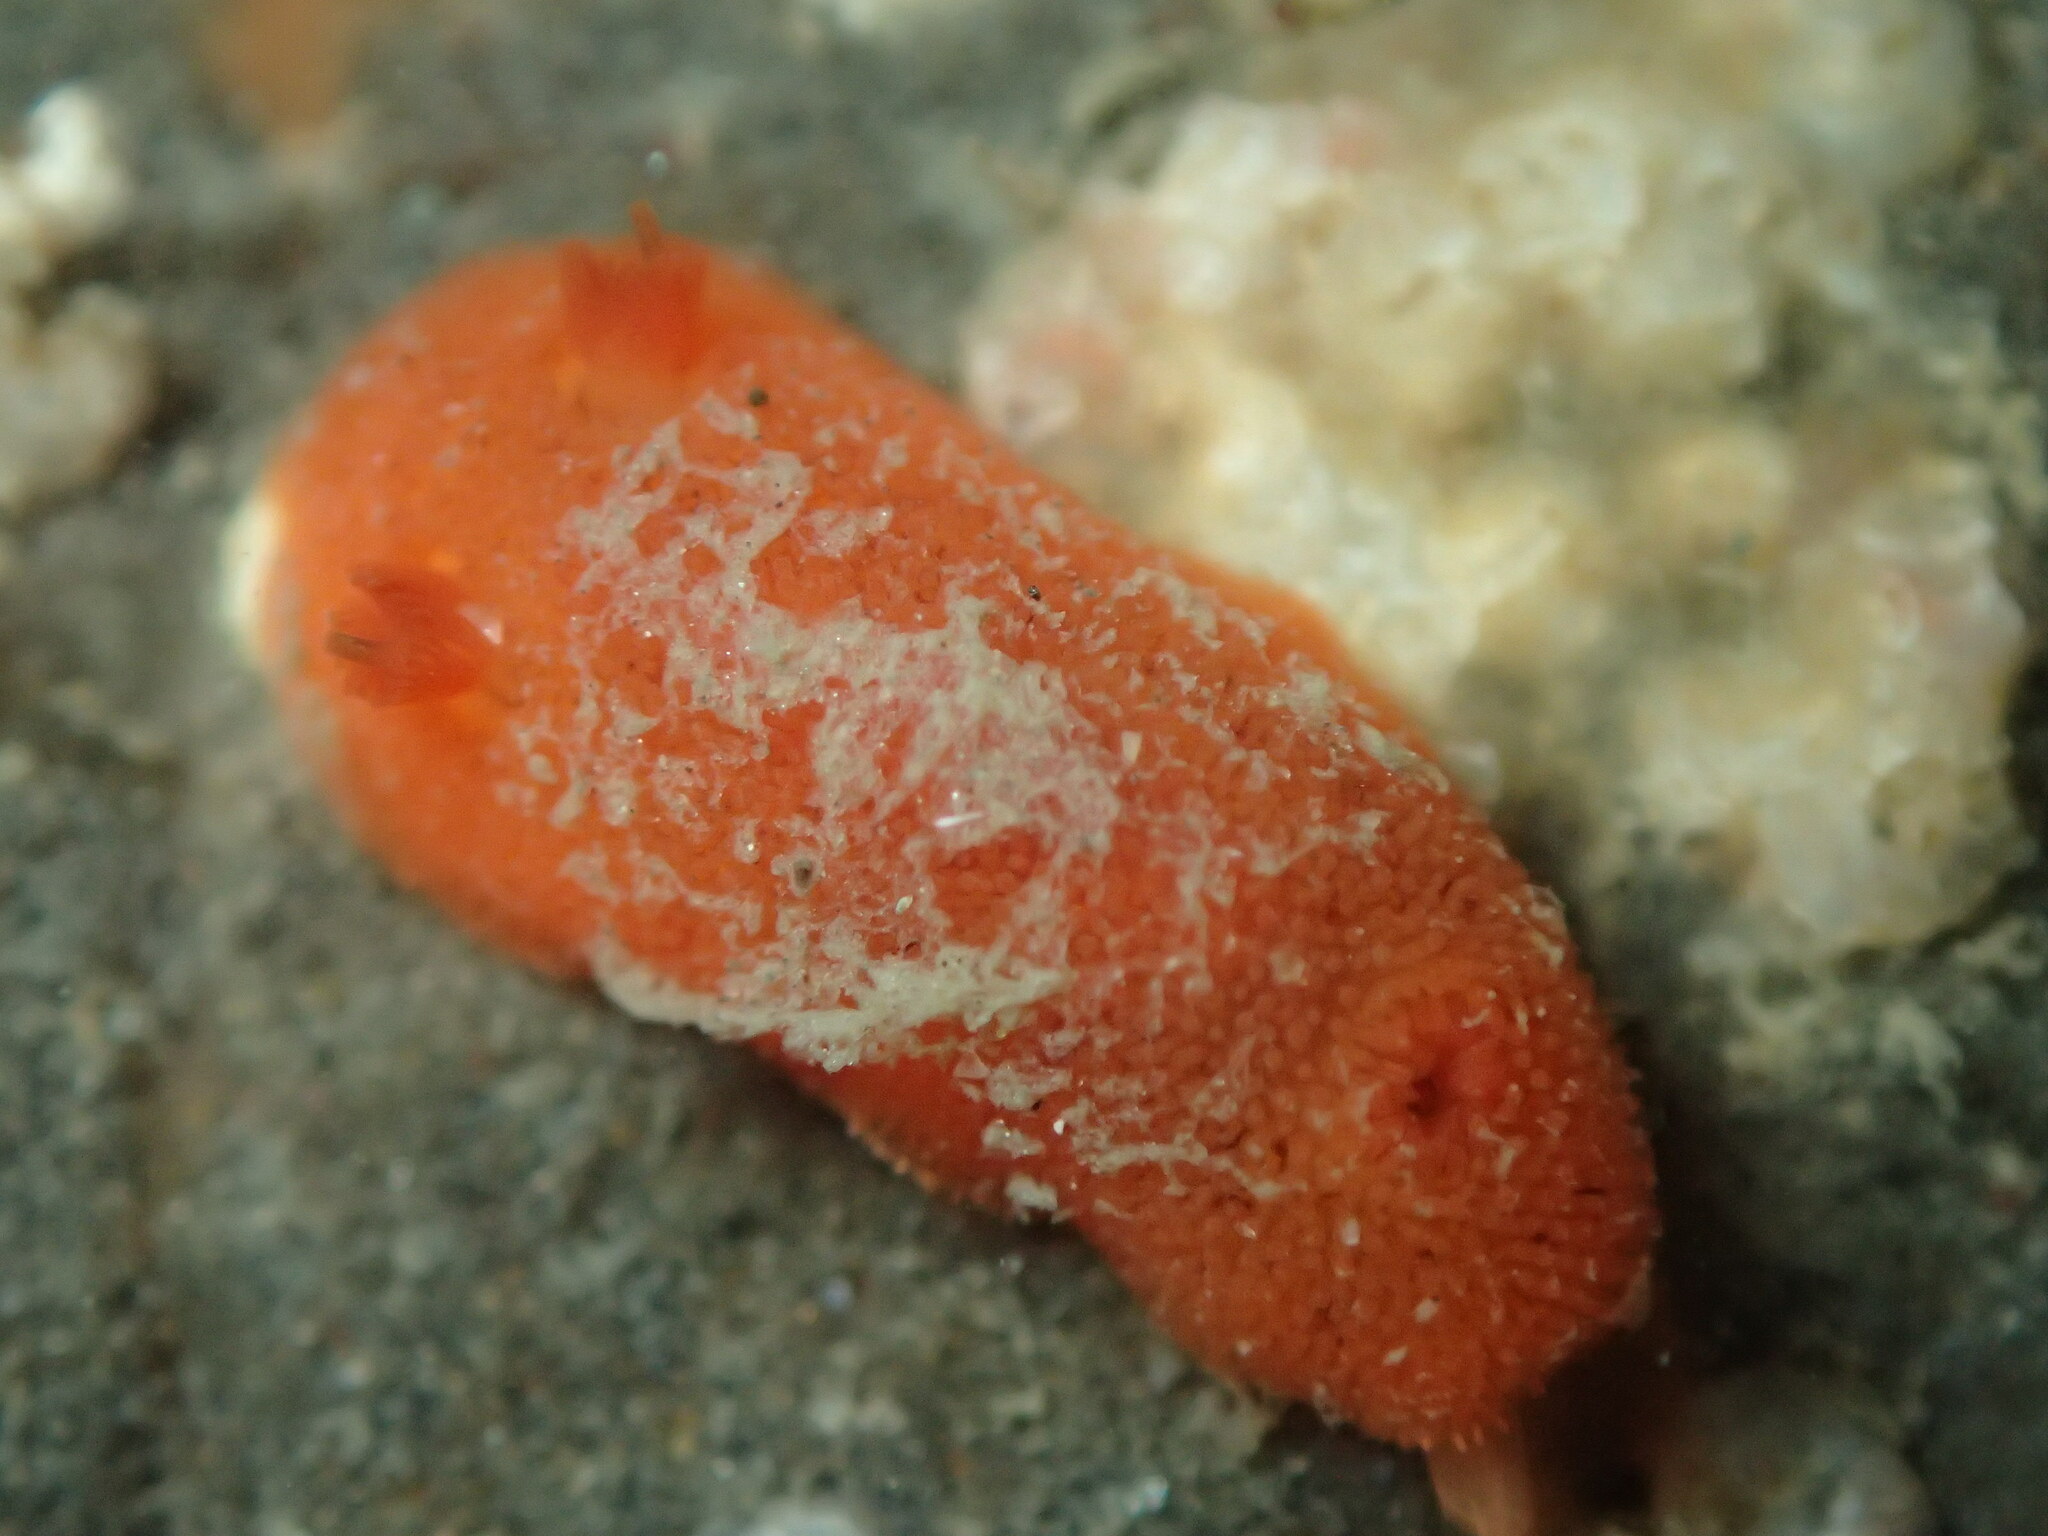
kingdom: Animalia
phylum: Mollusca
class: Gastropoda
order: Nudibranchia
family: Discodorididae
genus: Rostanga
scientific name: Rostanga pulchra
